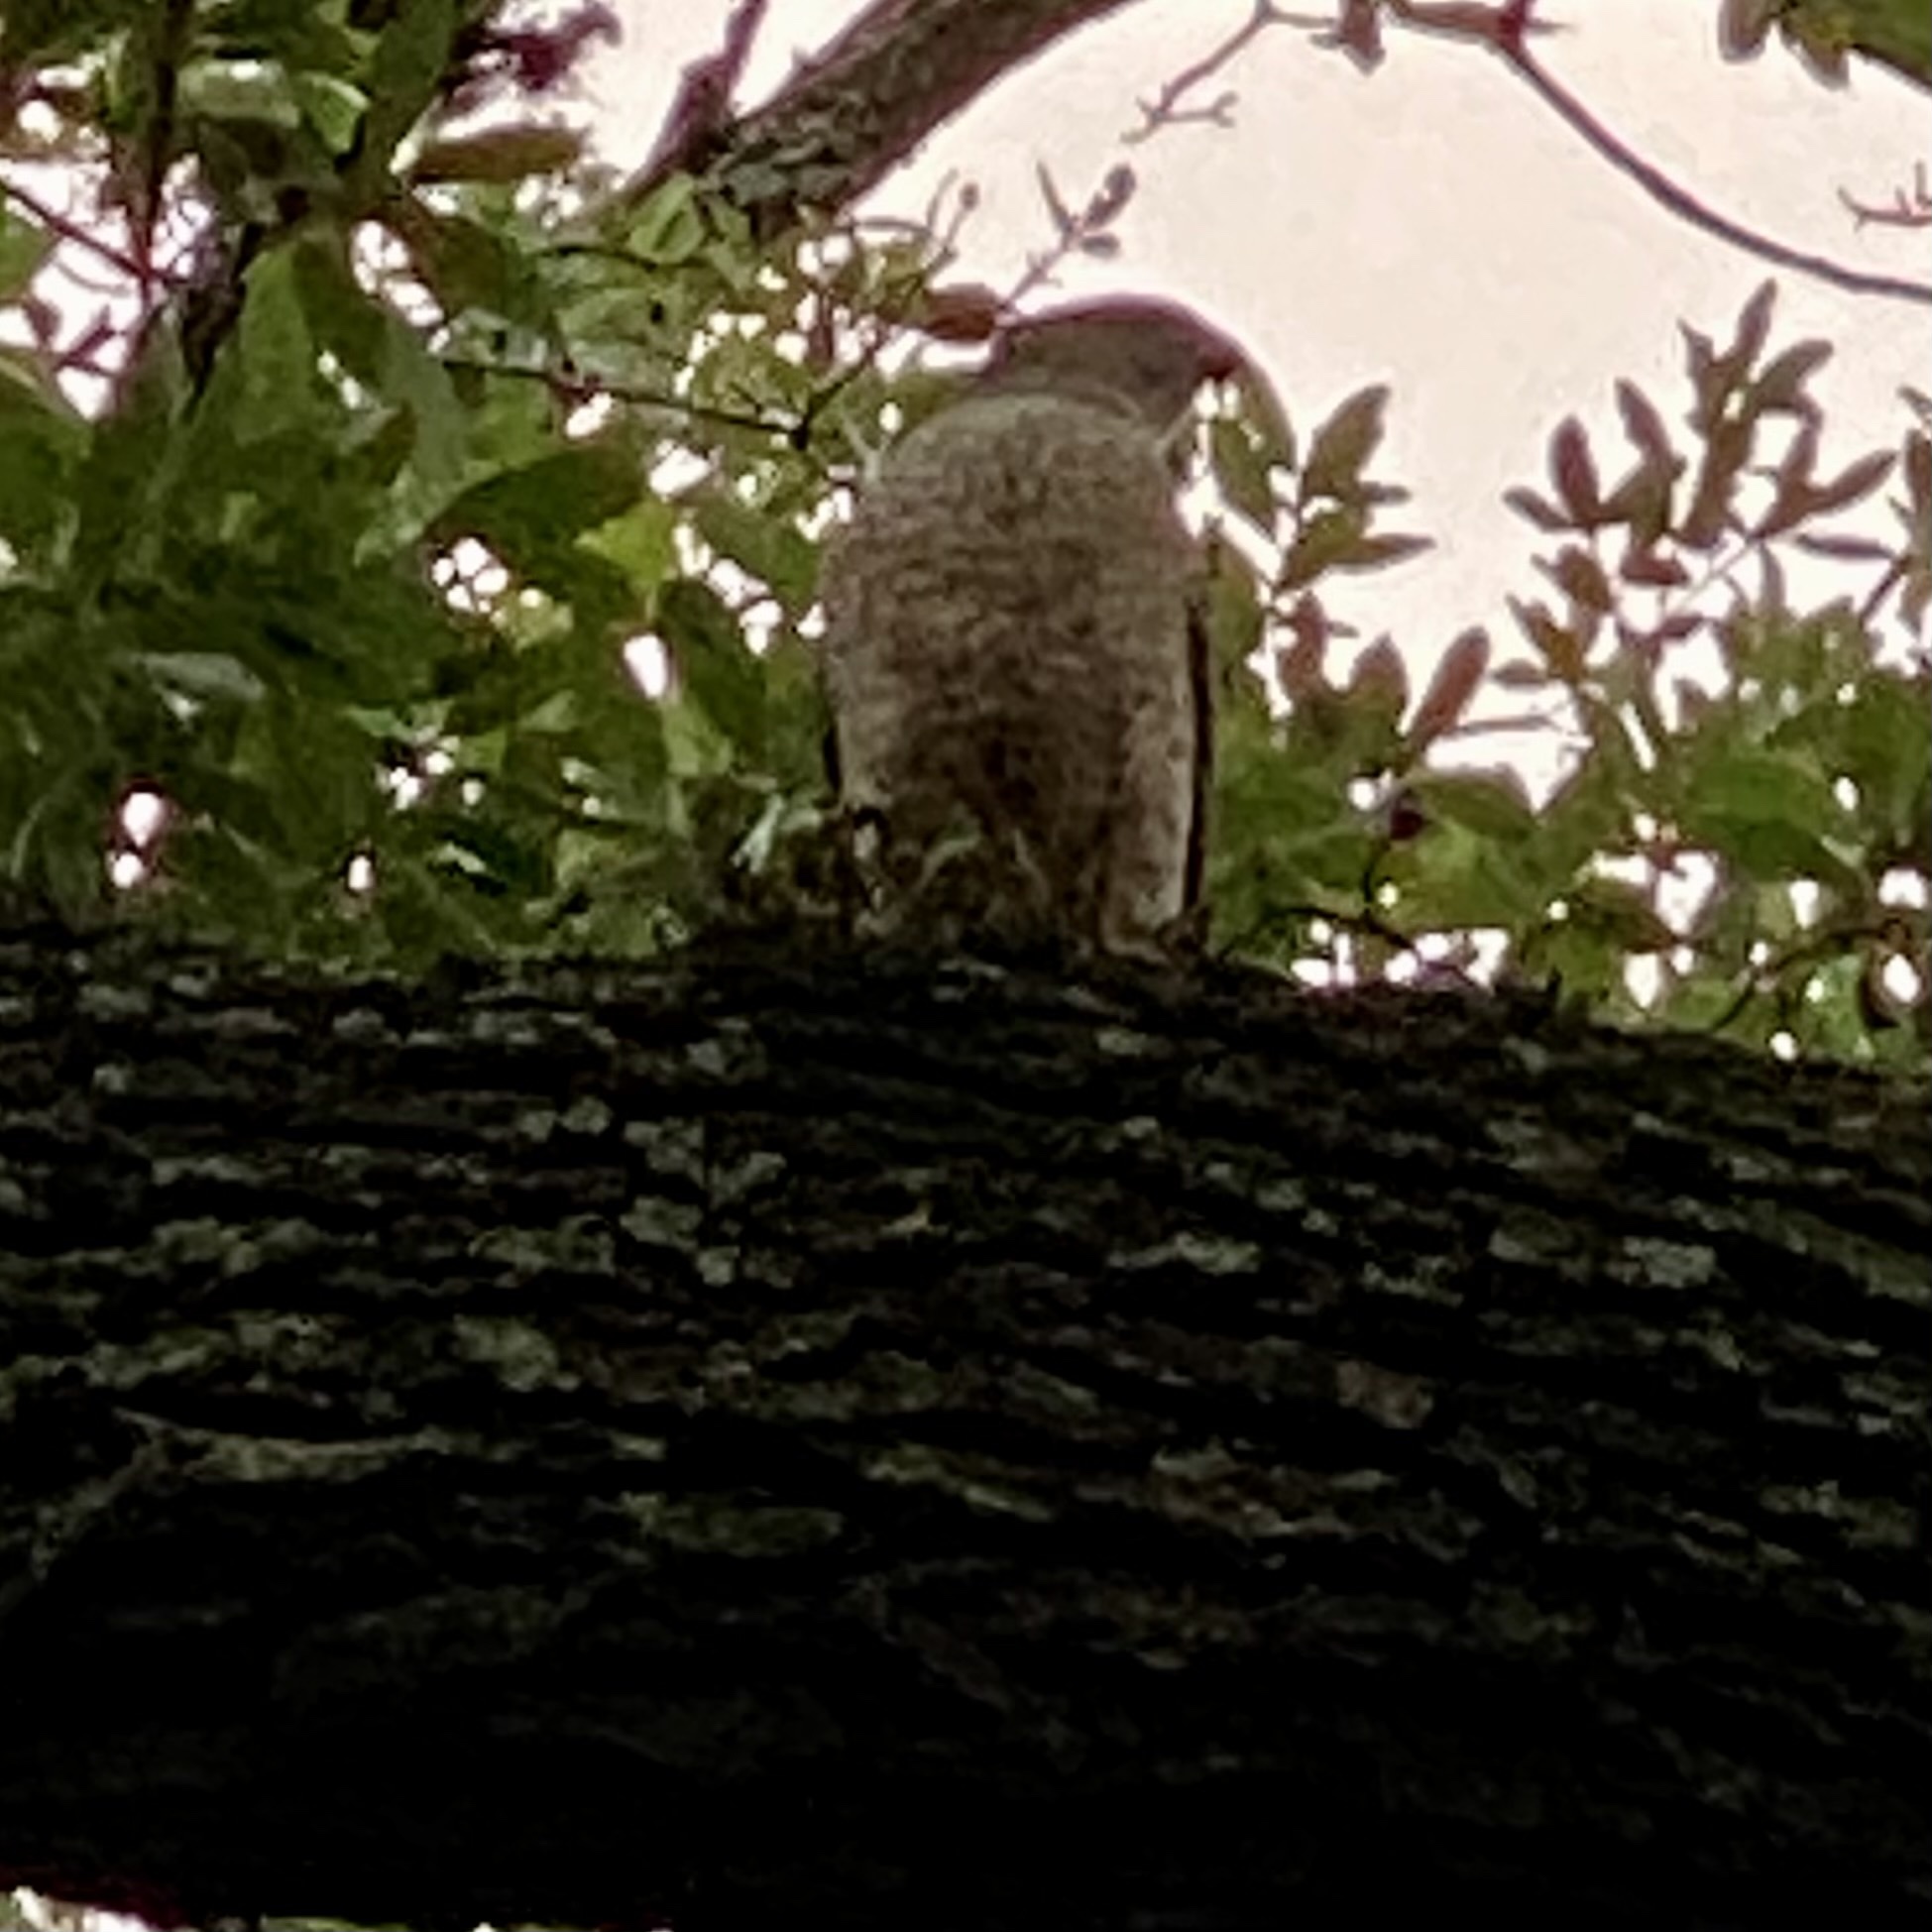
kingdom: Animalia
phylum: Chordata
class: Aves
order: Accipitriformes
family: Accipitridae
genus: Accipiter
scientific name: Accipiter cooperii
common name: Cooper's hawk
